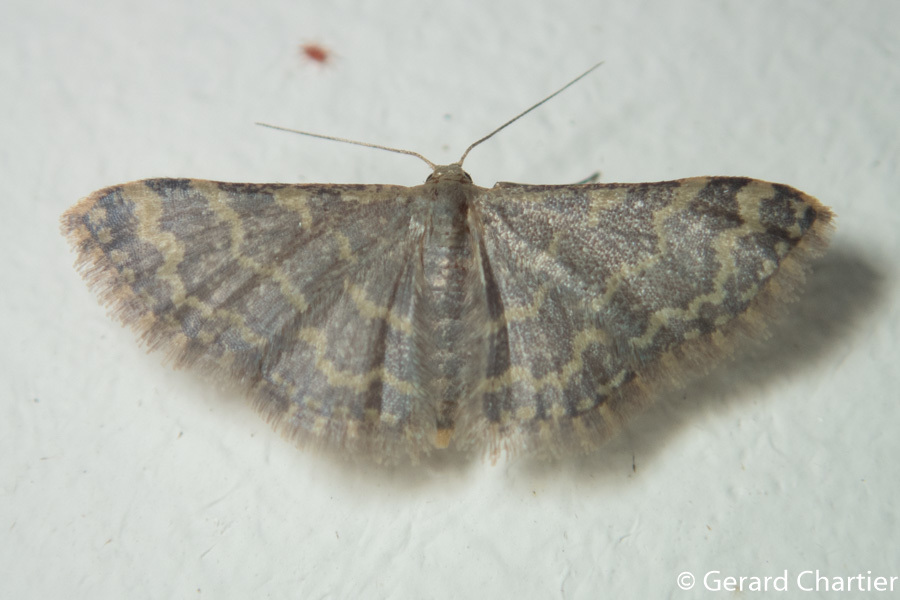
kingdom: Animalia
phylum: Arthropoda
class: Insecta
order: Lepidoptera
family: Geometridae
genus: Idaea
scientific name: Idaea costiguttata
